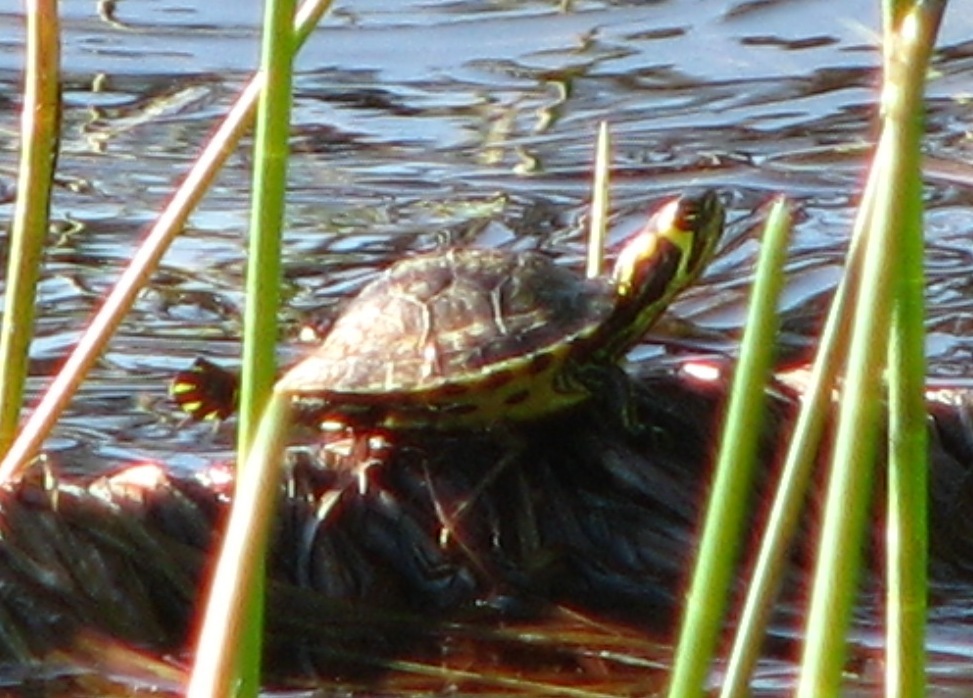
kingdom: Animalia
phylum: Chordata
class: Testudines
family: Emydidae
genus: Trachemys
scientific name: Trachemys scripta
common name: Slider
